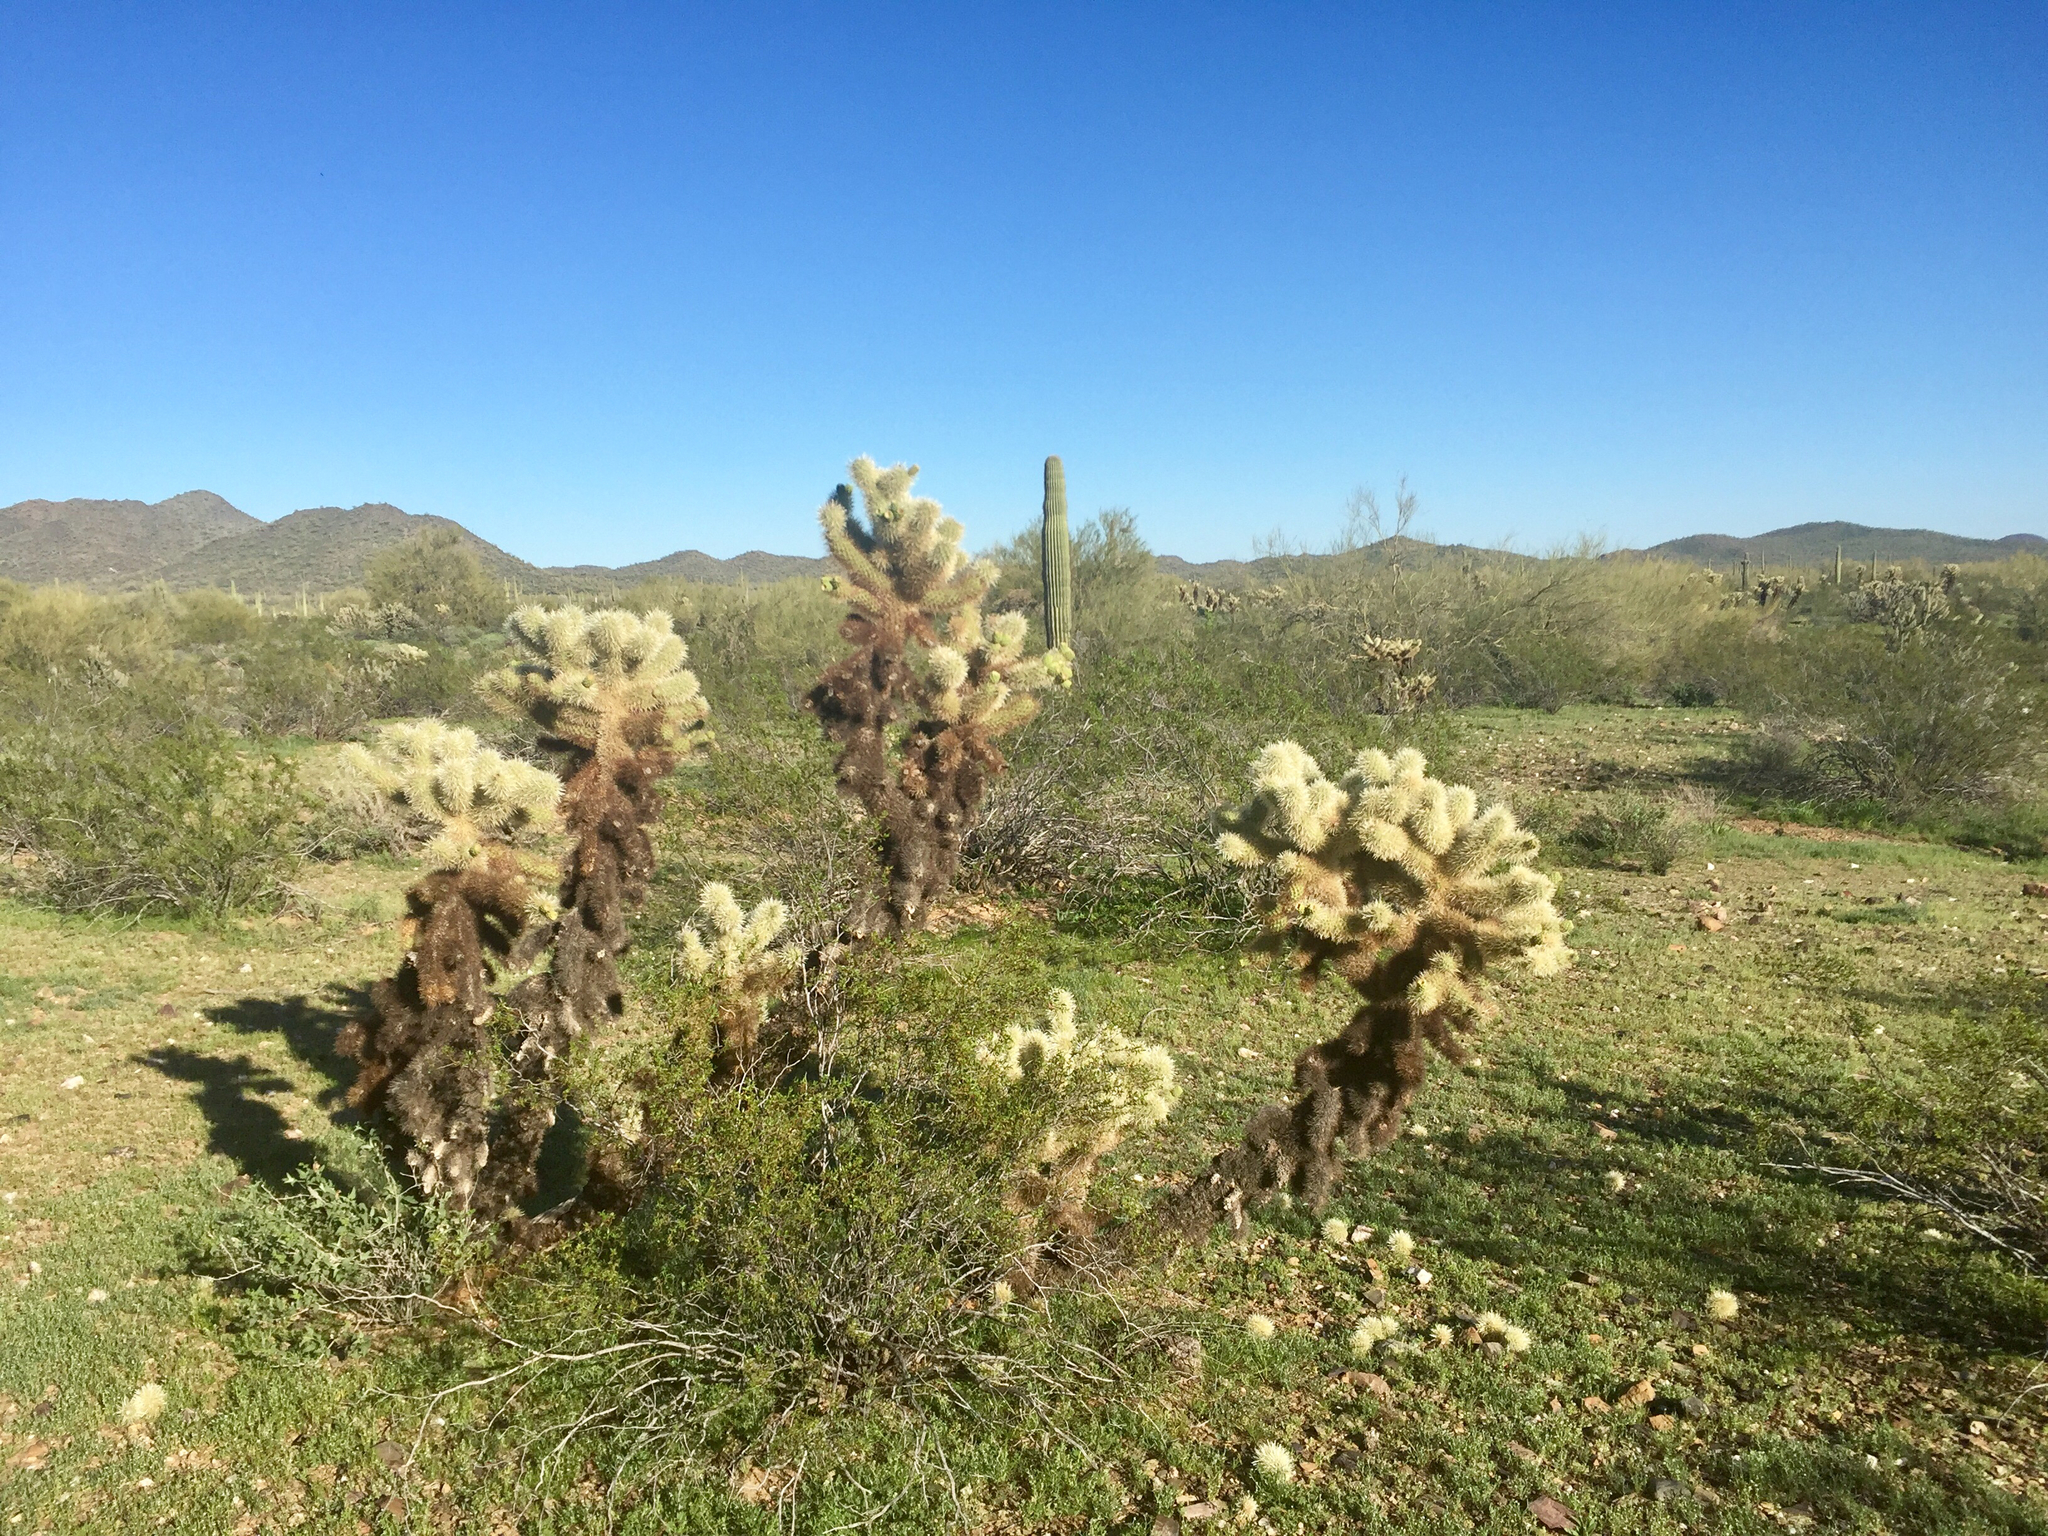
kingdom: Plantae
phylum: Tracheophyta
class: Magnoliopsida
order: Caryophyllales
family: Cactaceae
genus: Cylindropuntia
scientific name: Cylindropuntia fosbergii
